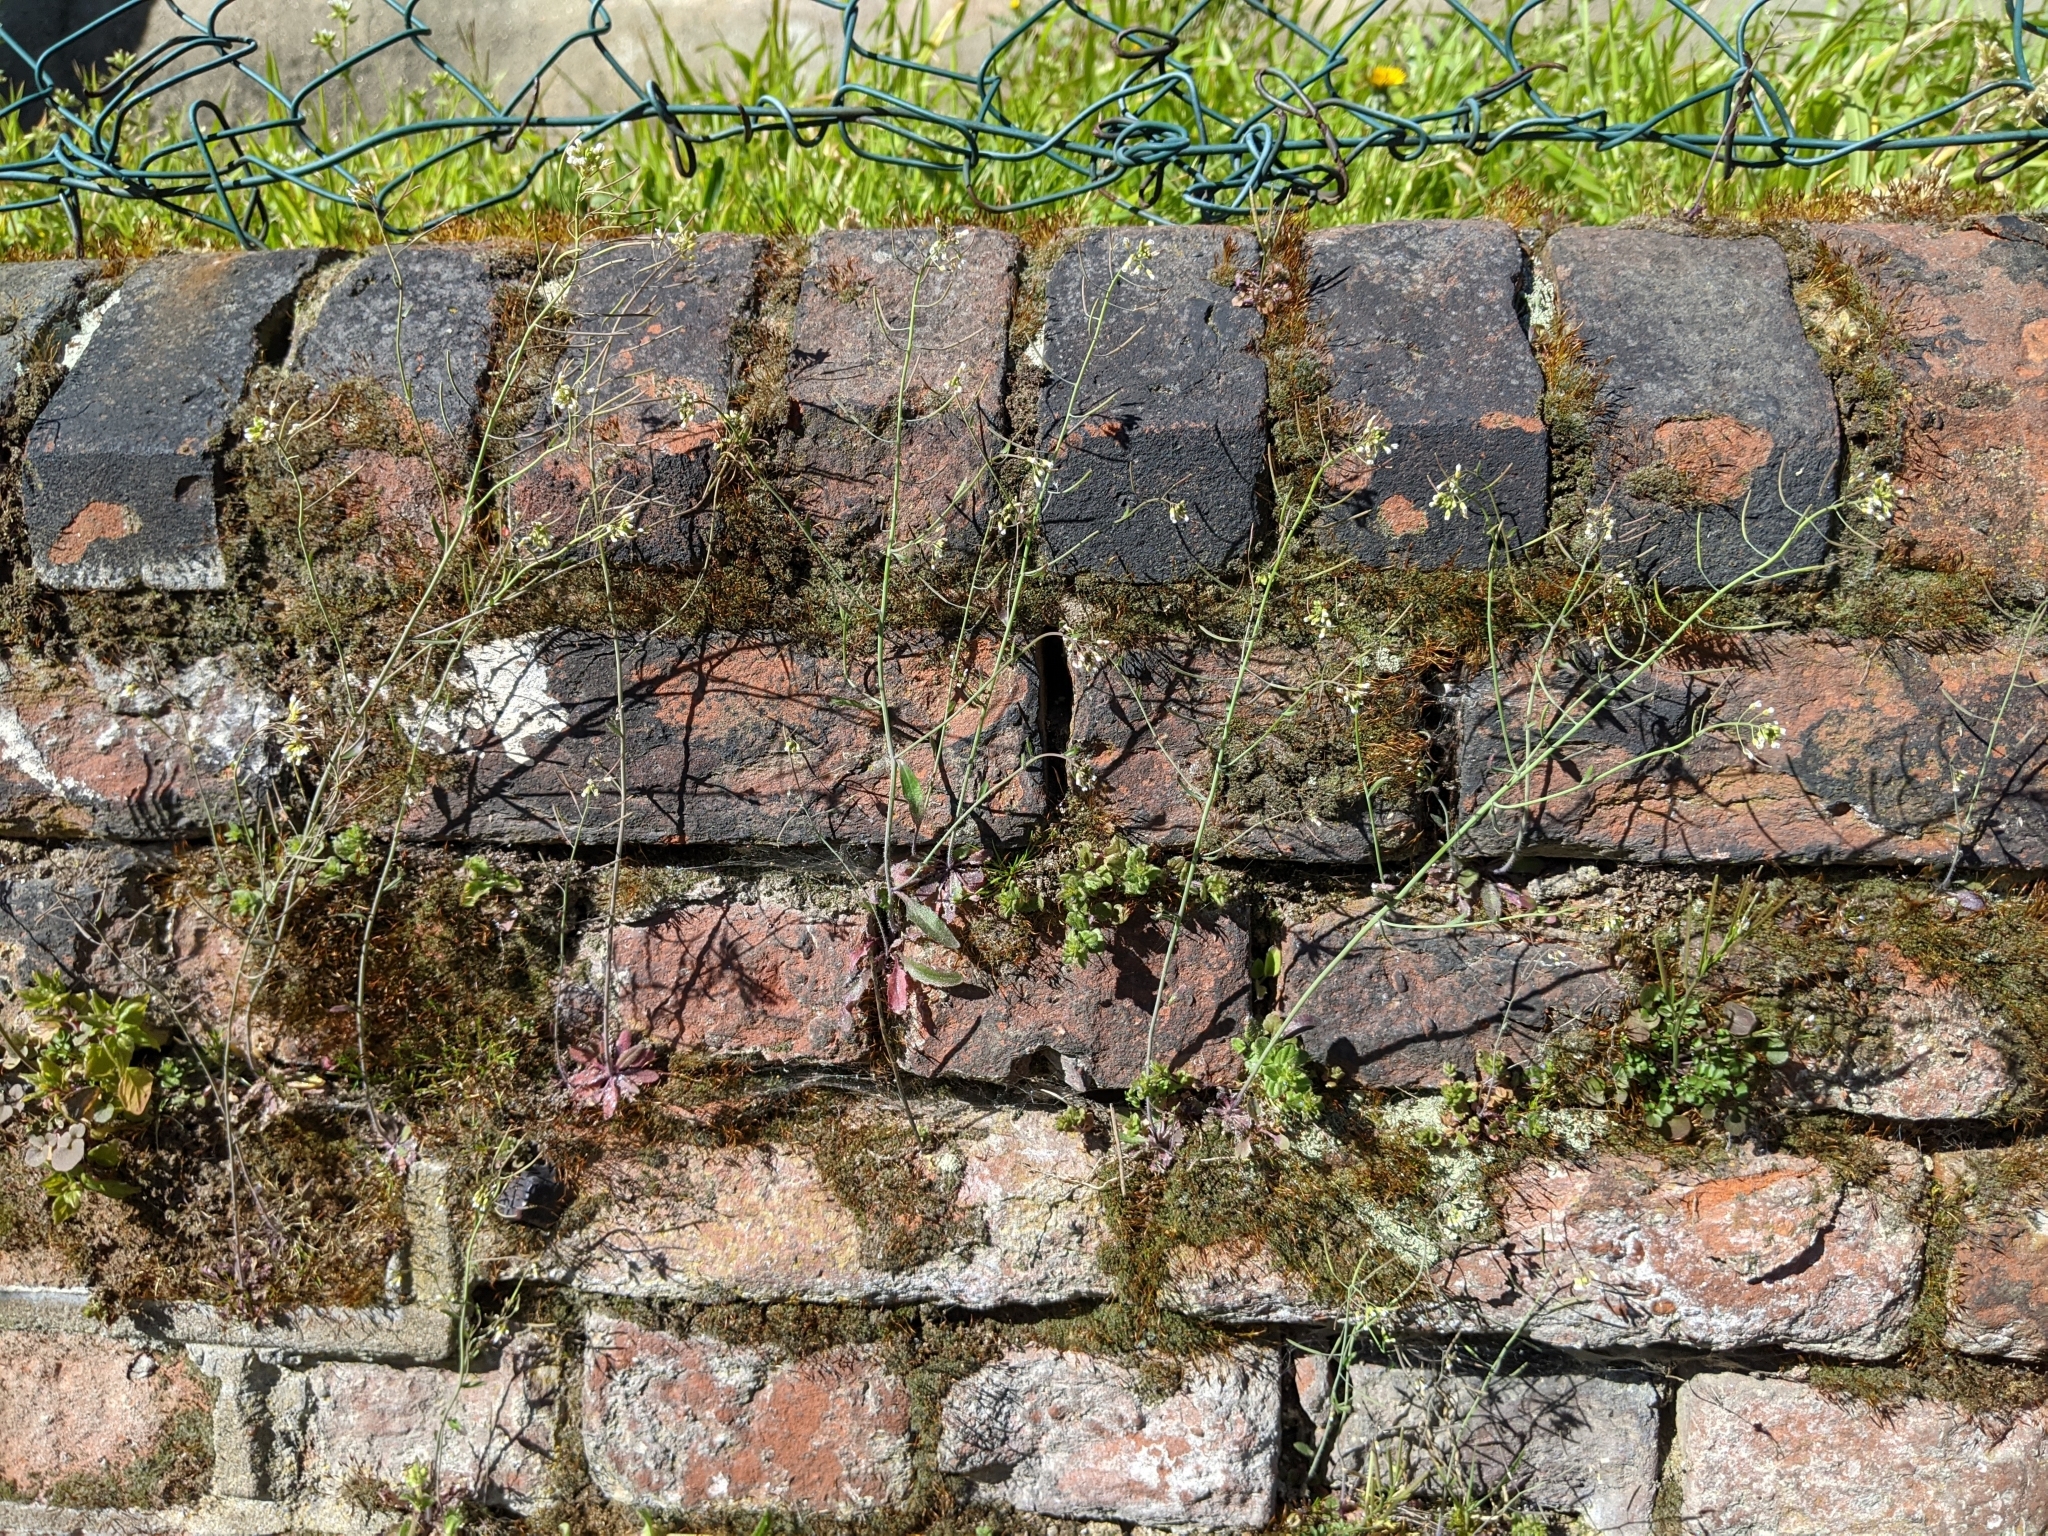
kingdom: Plantae
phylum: Tracheophyta
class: Magnoliopsida
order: Brassicales
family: Brassicaceae
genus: Arabidopsis
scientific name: Arabidopsis thaliana
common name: Thale cress
